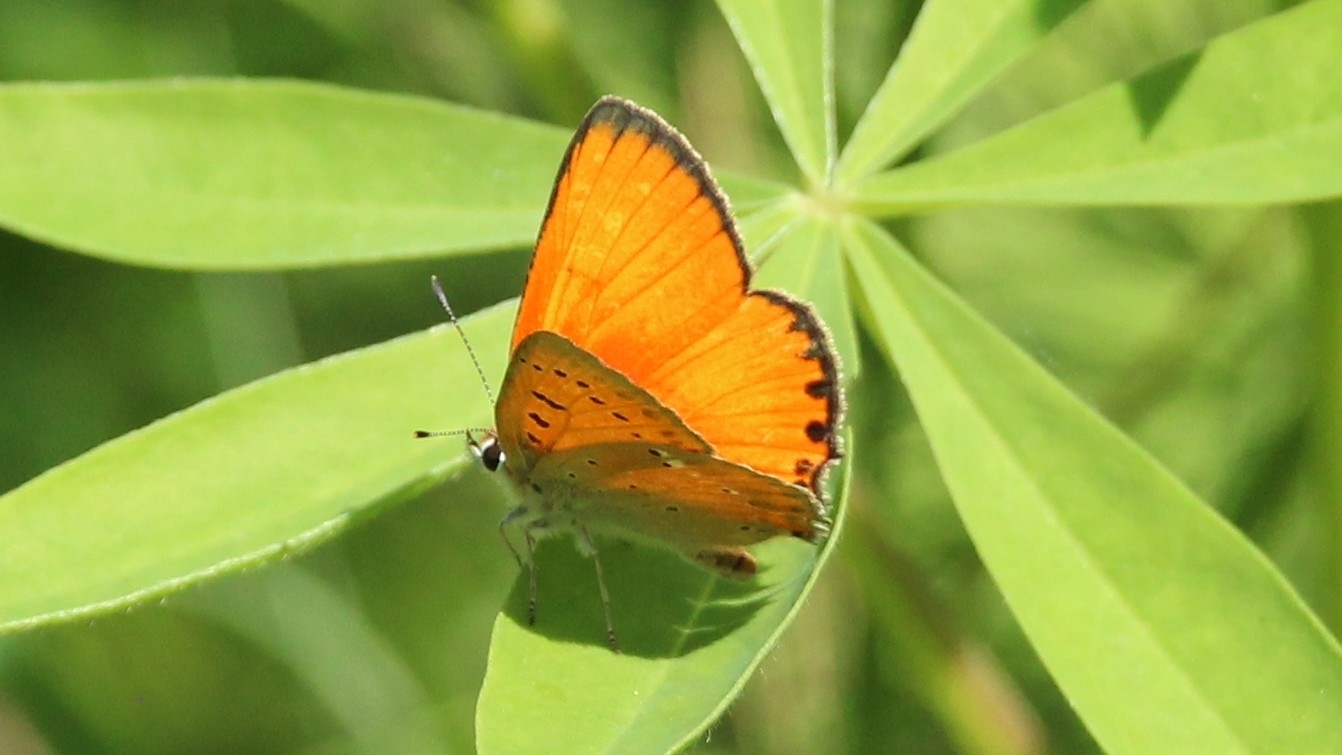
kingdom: Animalia
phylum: Arthropoda
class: Insecta
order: Lepidoptera
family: Lycaenidae
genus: Lycaena
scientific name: Lycaena virgaureae
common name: Scarce copper
